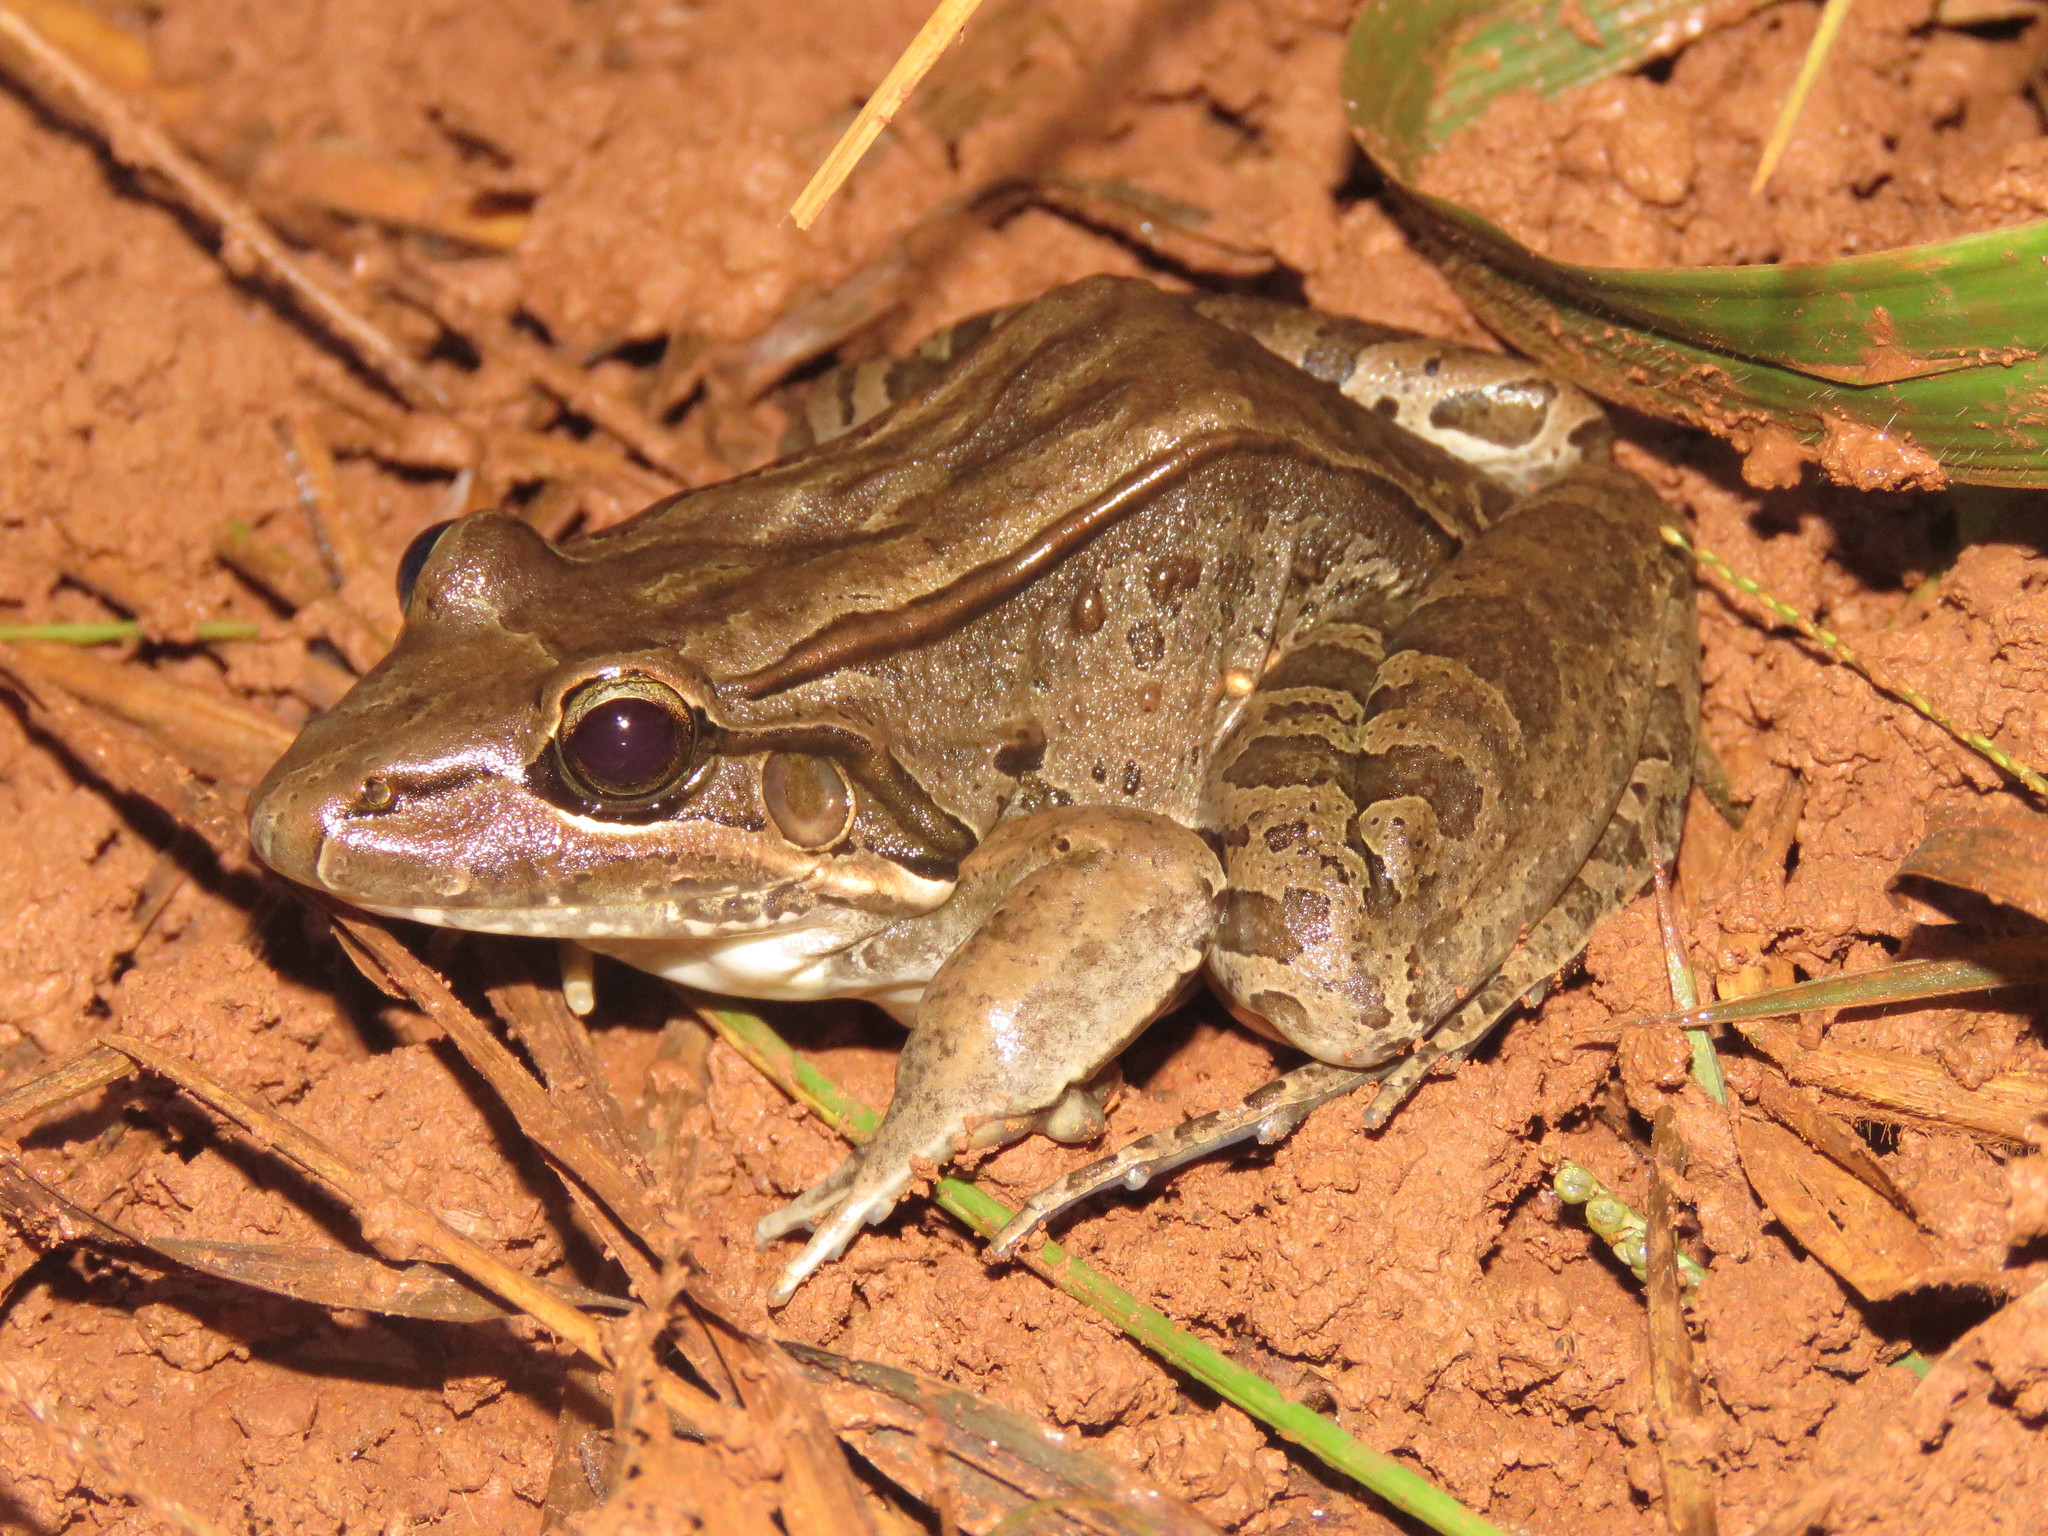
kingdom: Animalia
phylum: Chordata
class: Amphibia
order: Anura
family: Leptodactylidae
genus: Leptodactylus
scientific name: Leptodactylus bolivianus
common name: Bolivian white-lipped frog
